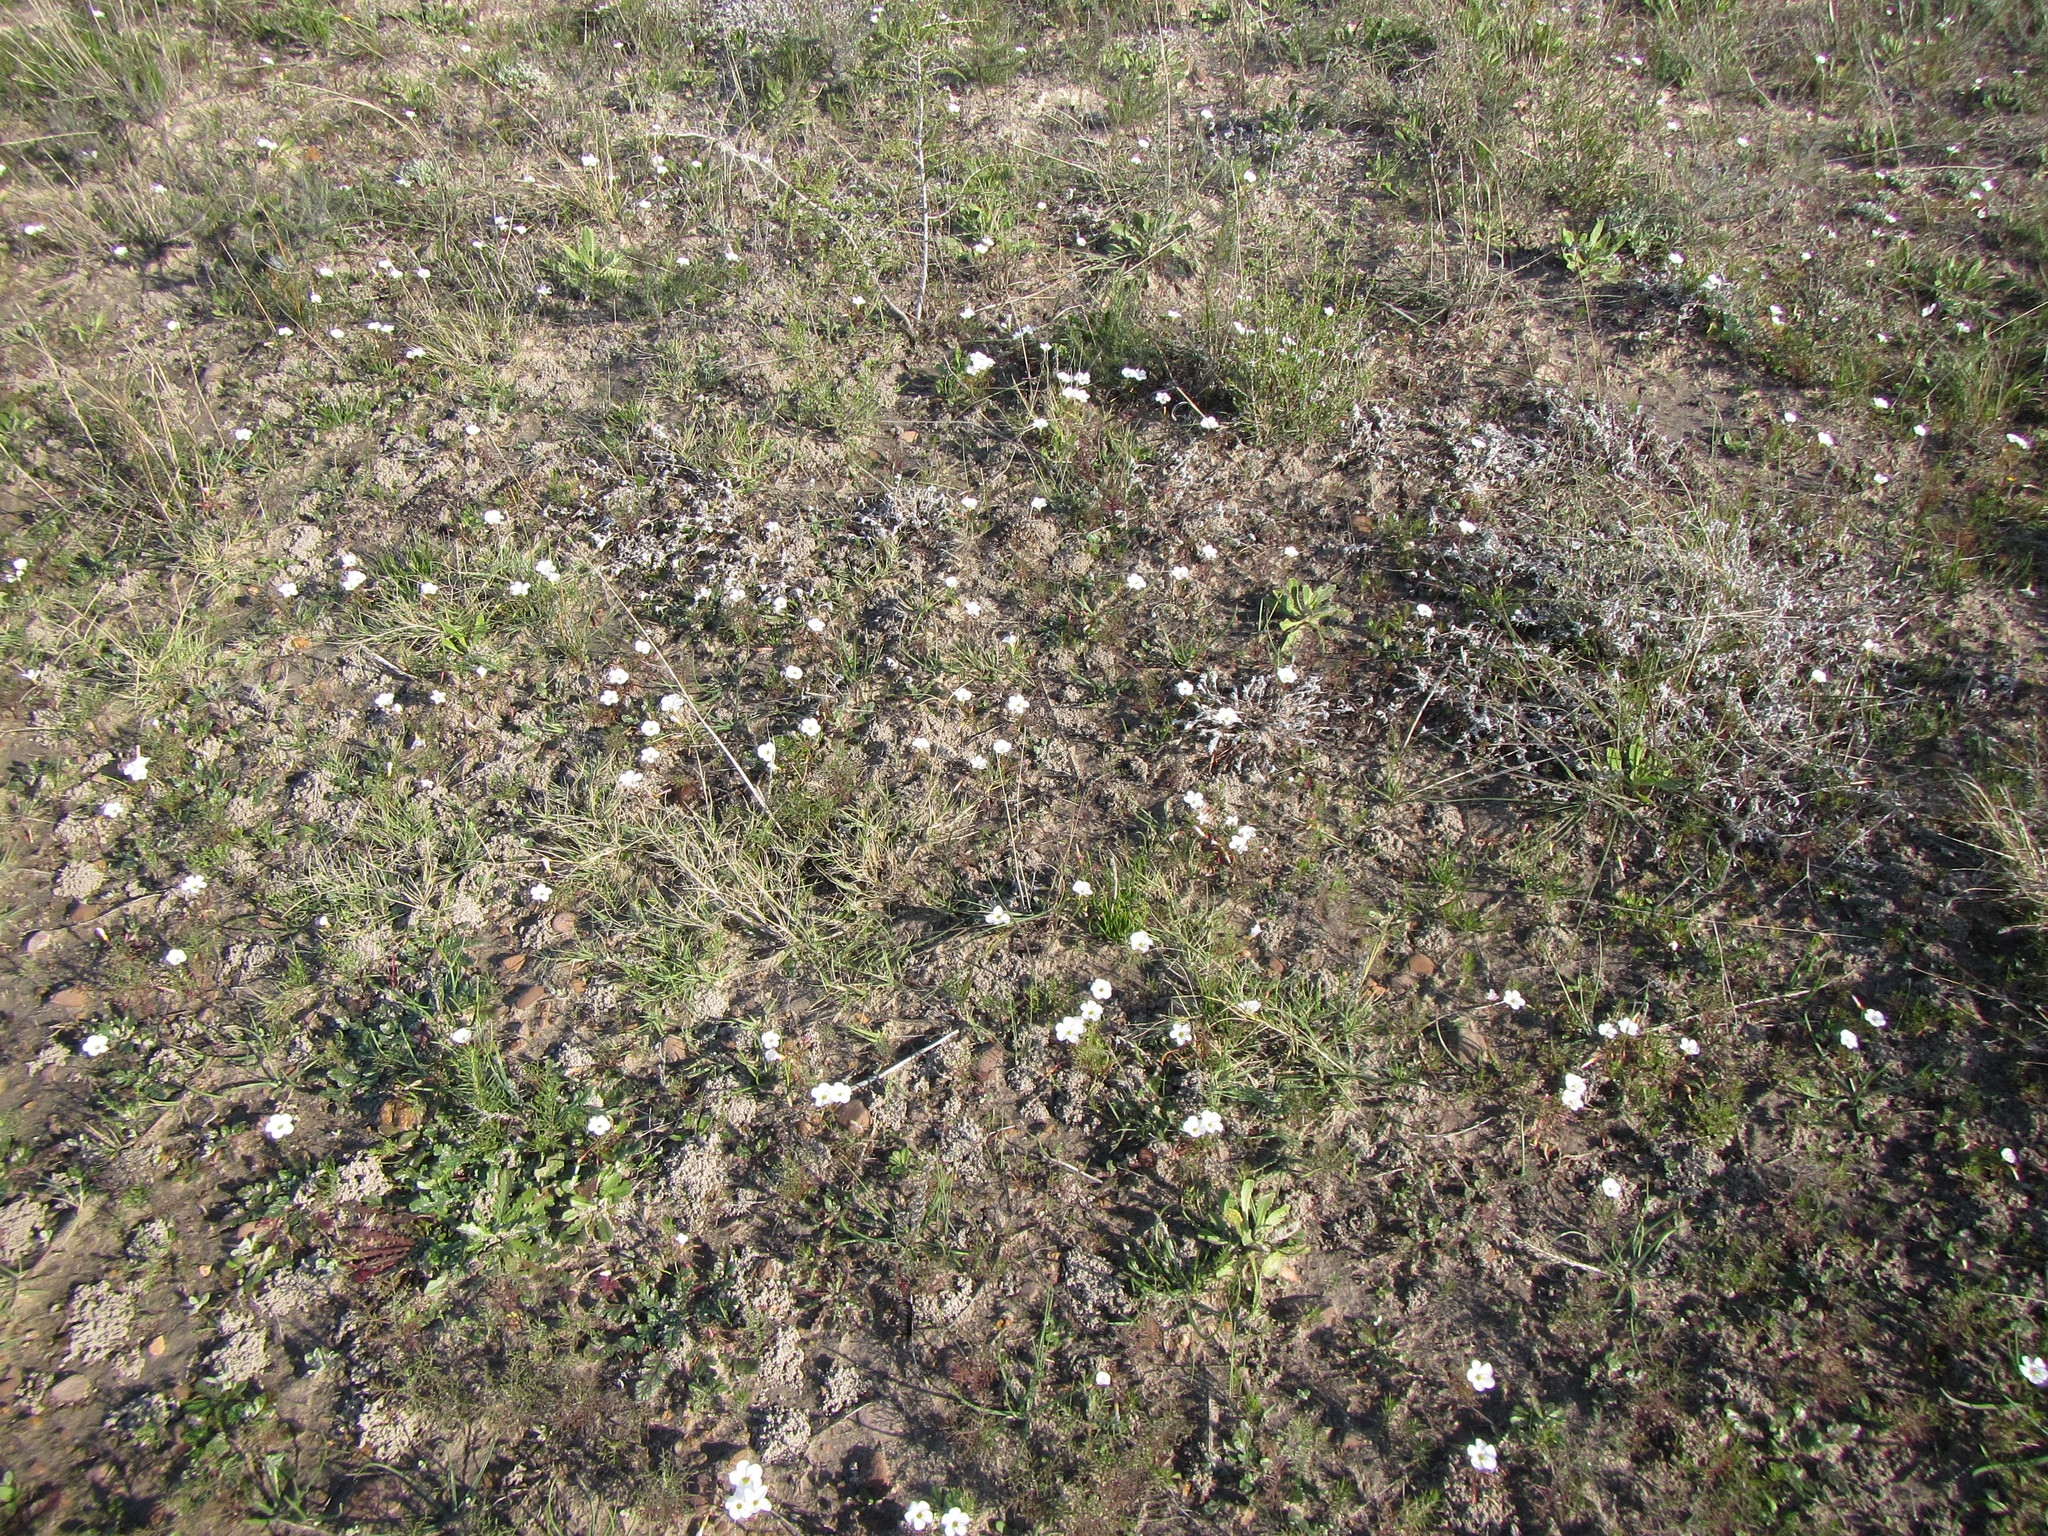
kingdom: Plantae
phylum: Tracheophyta
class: Magnoliopsida
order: Oxalidales
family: Oxalidaceae
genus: Oxalis
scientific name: Oxalis goniorhiza
